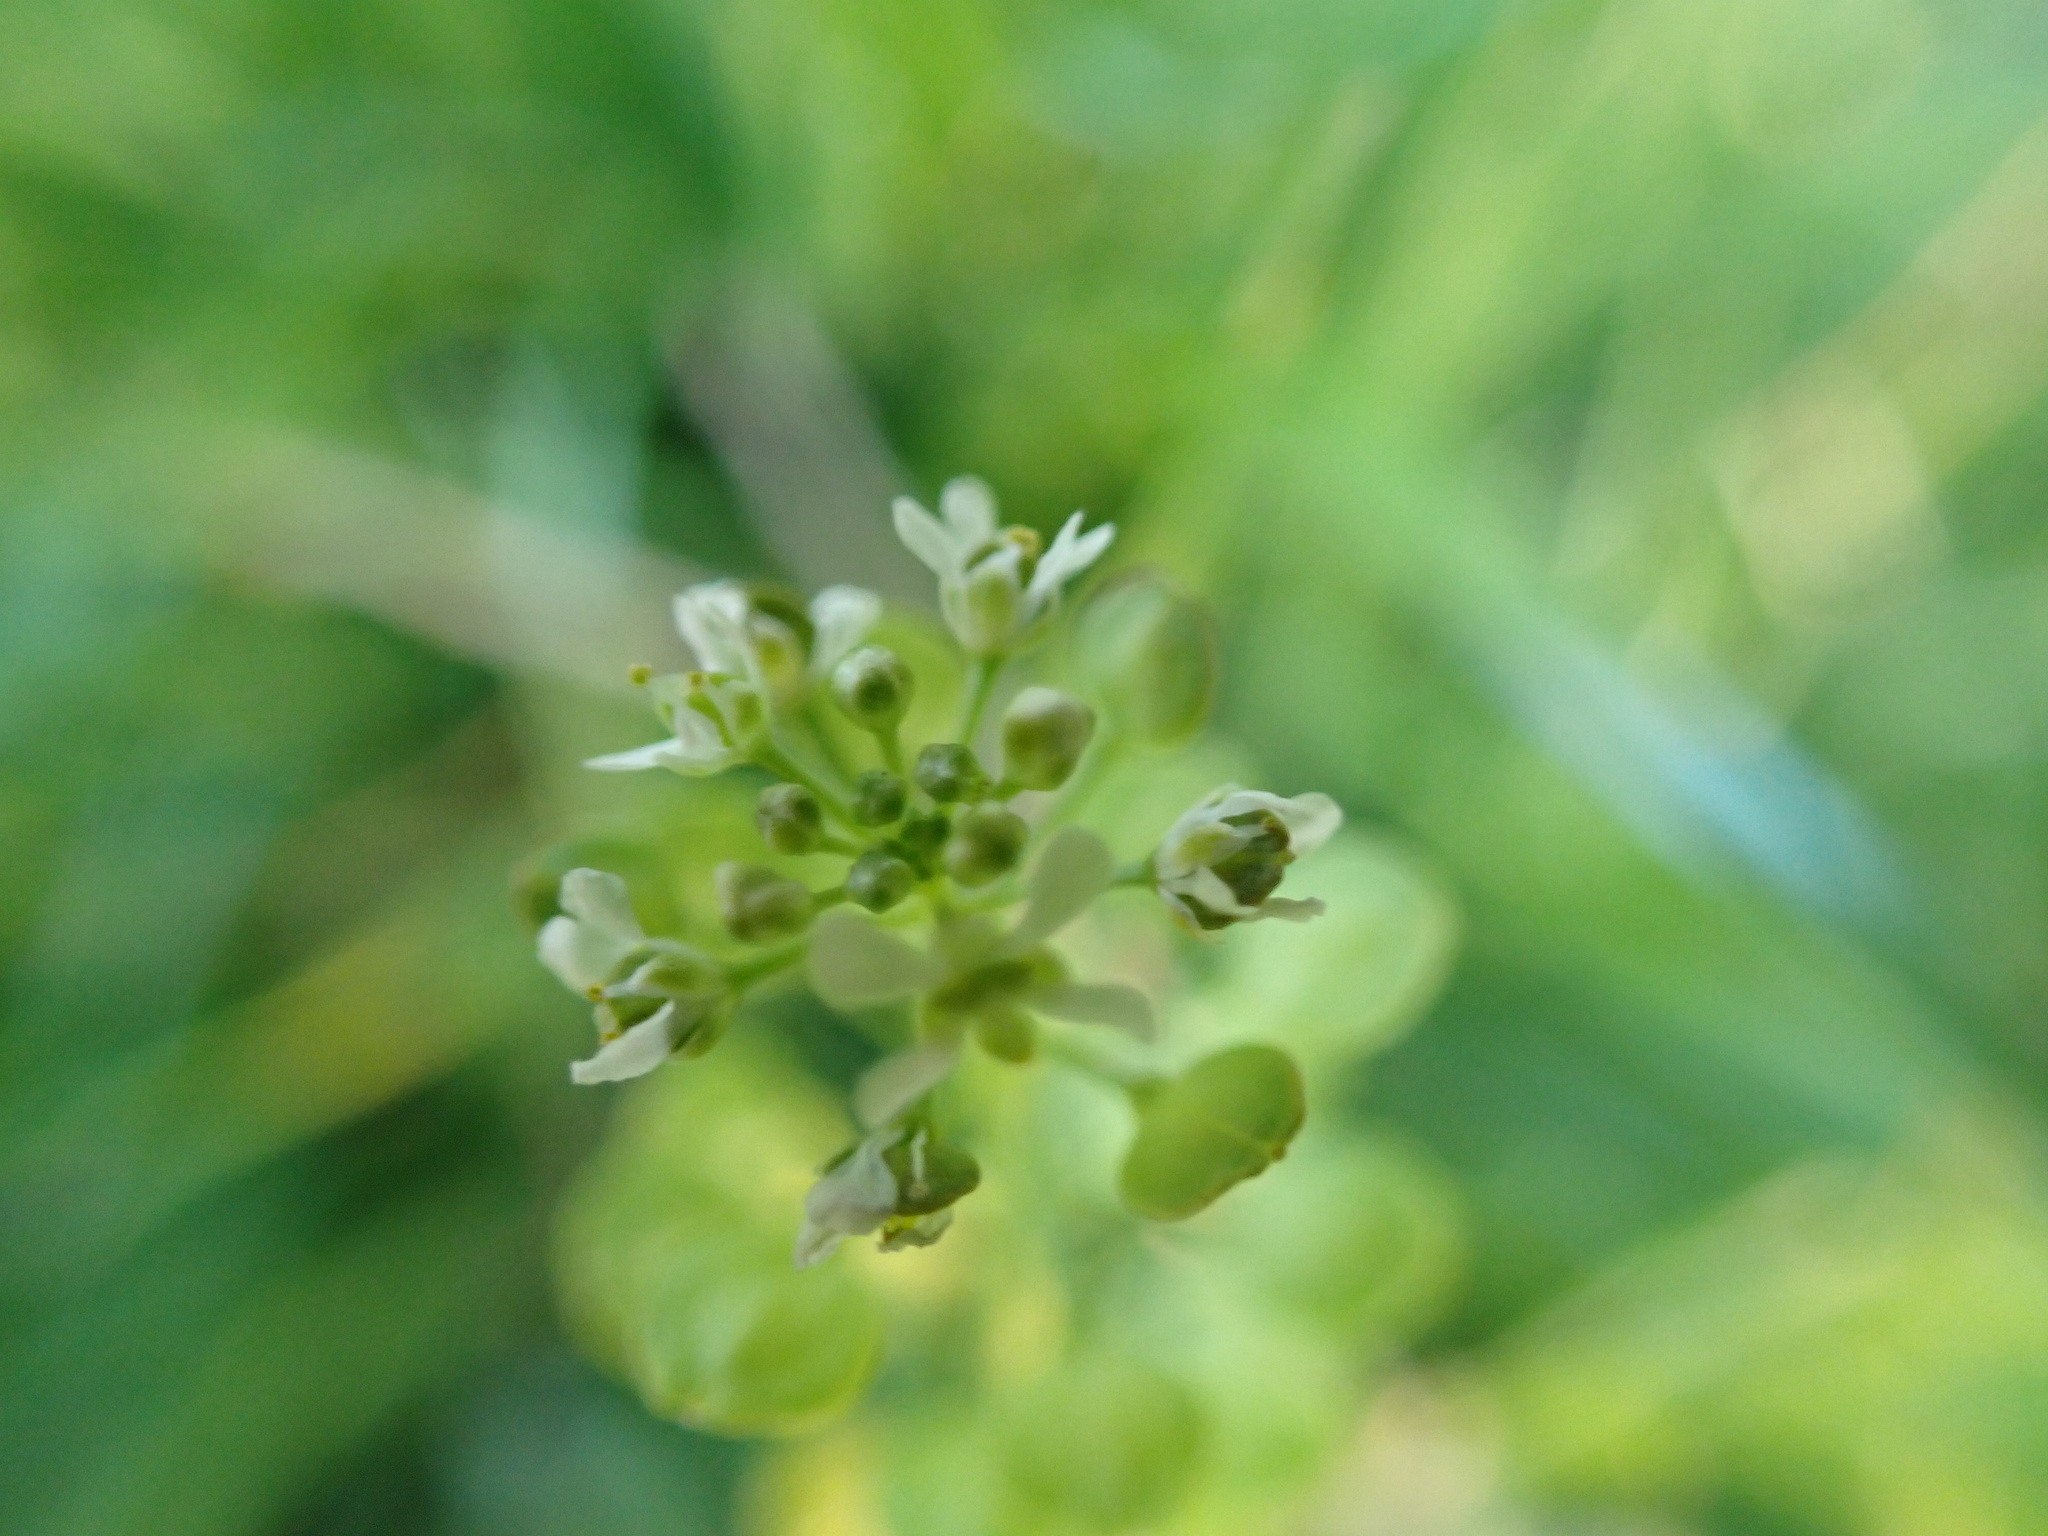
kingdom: Plantae
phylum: Tracheophyta
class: Magnoliopsida
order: Brassicales
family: Brassicaceae
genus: Lepidium
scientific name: Lepidium virginicum
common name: Least pepperwort
